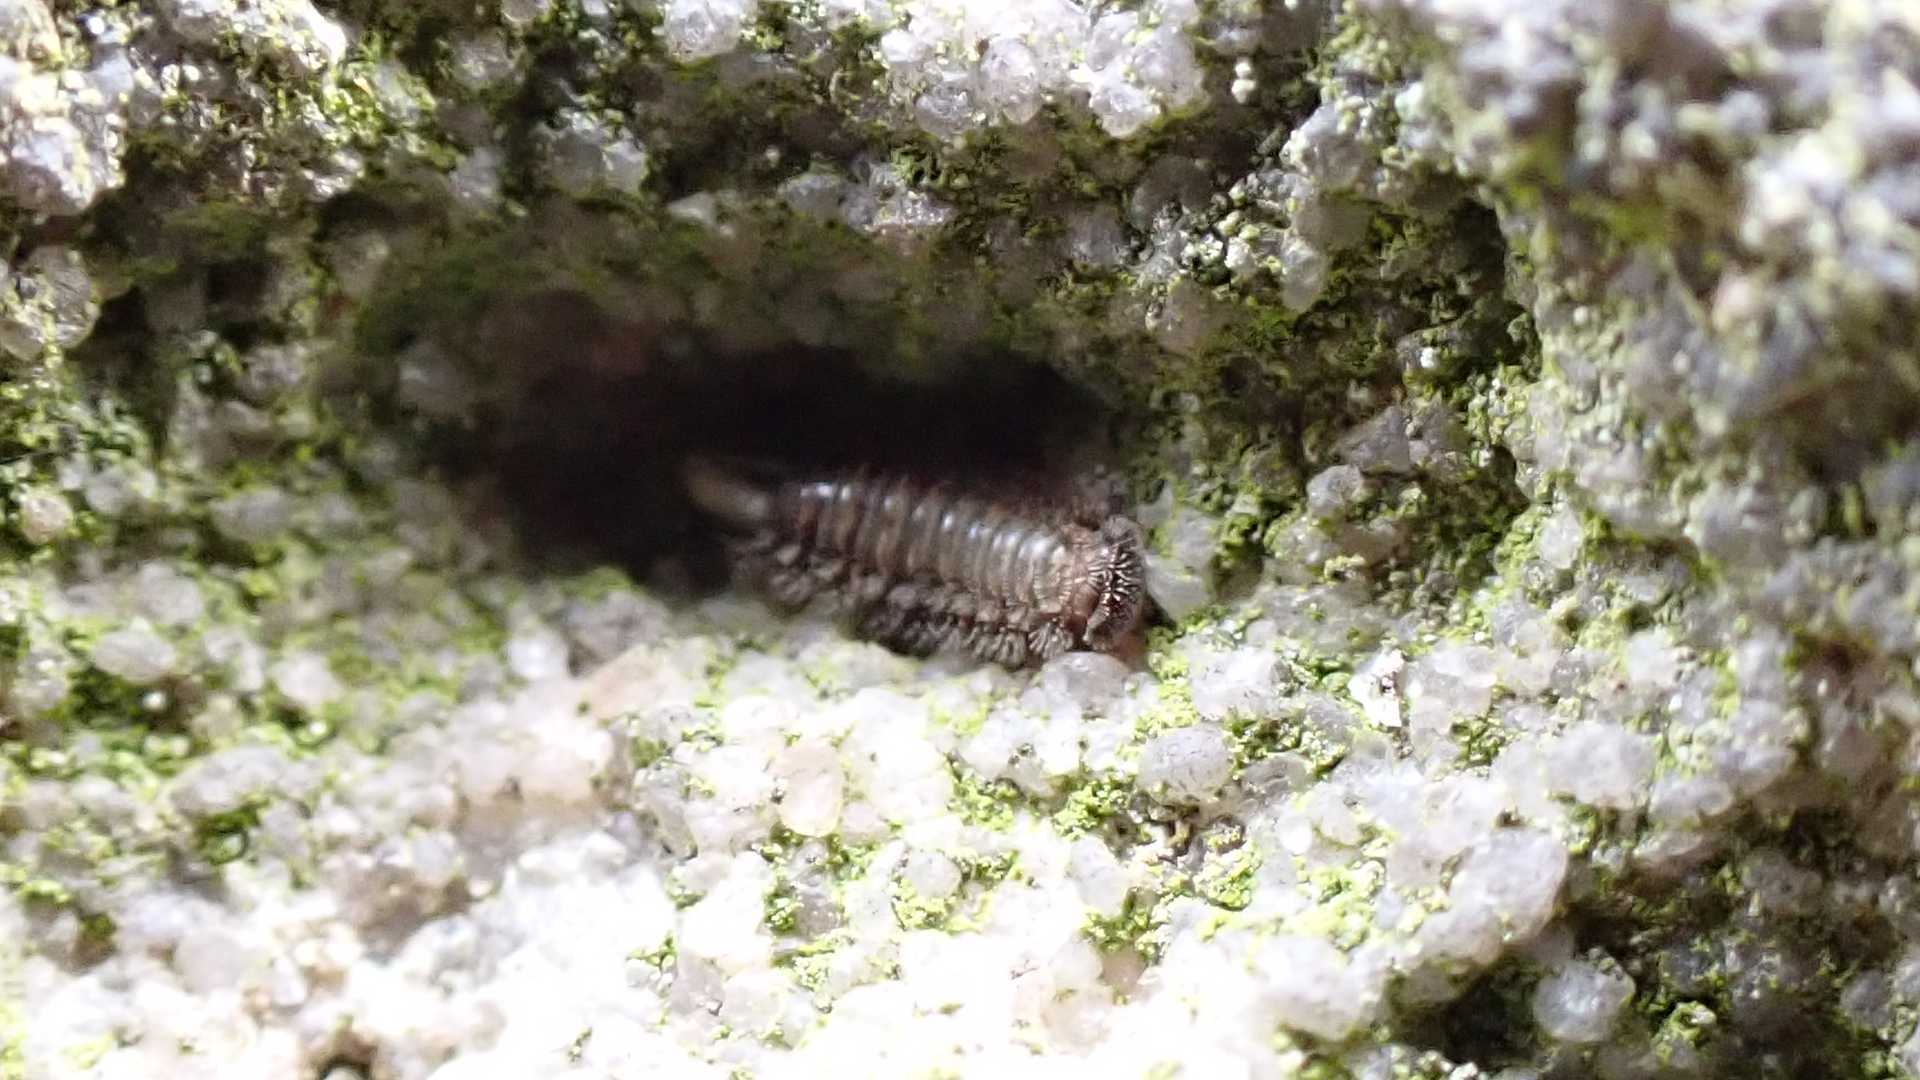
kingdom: Animalia
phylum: Arthropoda
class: Diplopoda
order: Polyxenida
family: Polyxenidae
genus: Polyxenus
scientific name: Polyxenus lagurus
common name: Bristly millipede
